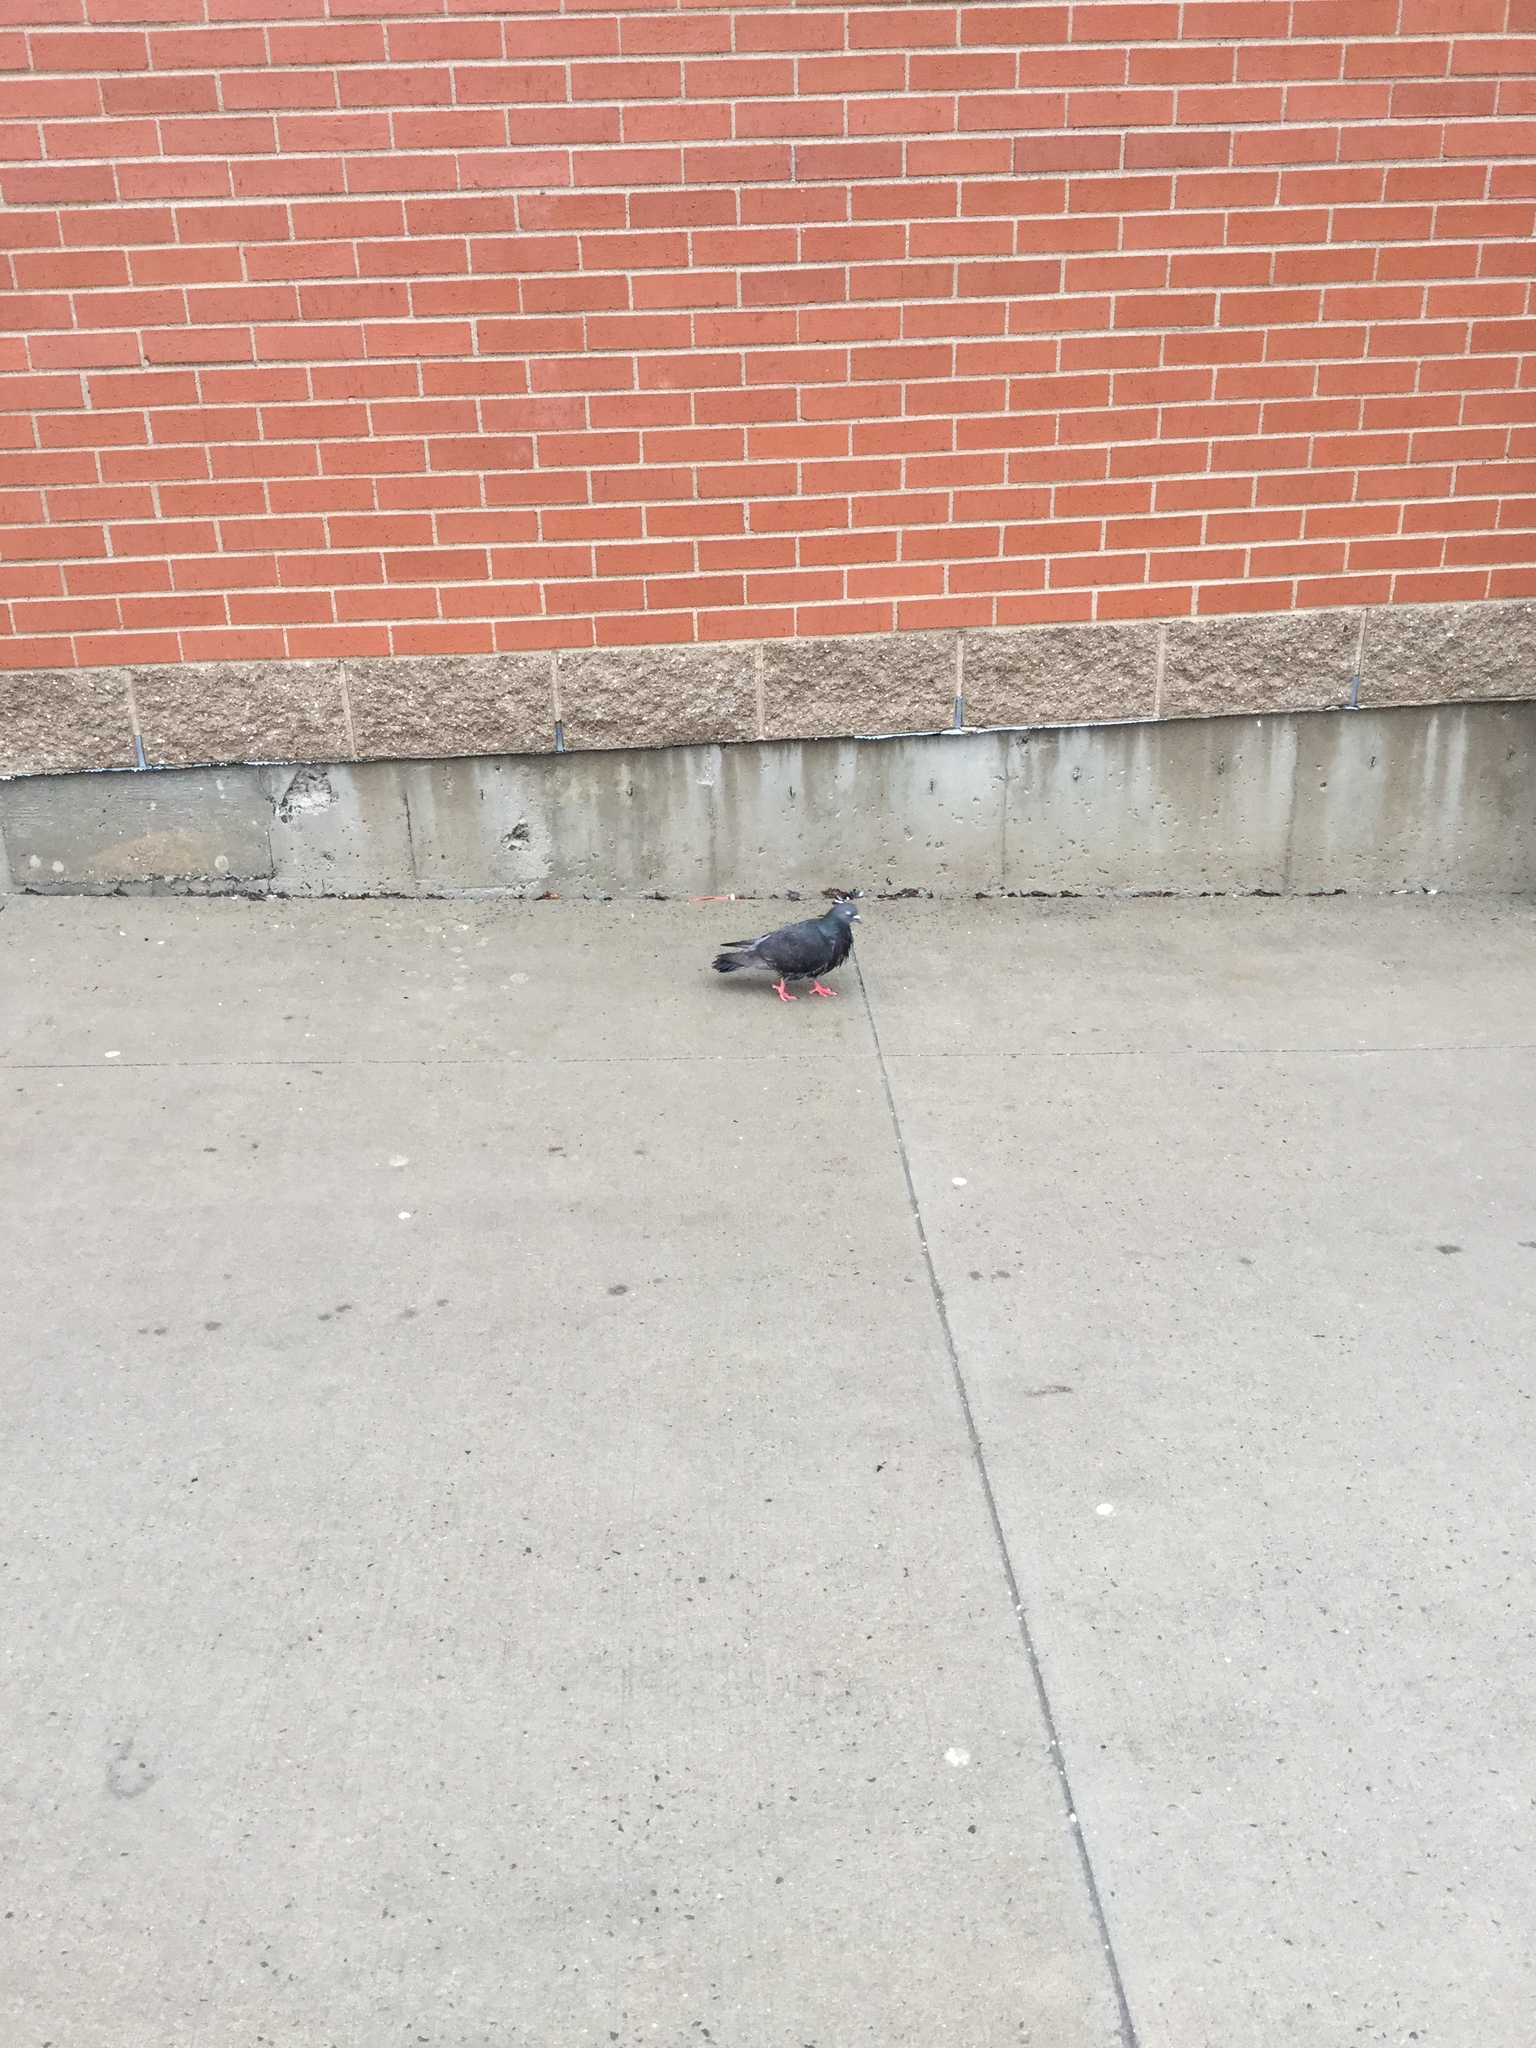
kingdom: Animalia
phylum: Chordata
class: Aves
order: Columbiformes
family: Columbidae
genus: Columba
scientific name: Columba livia
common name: Rock pigeon
